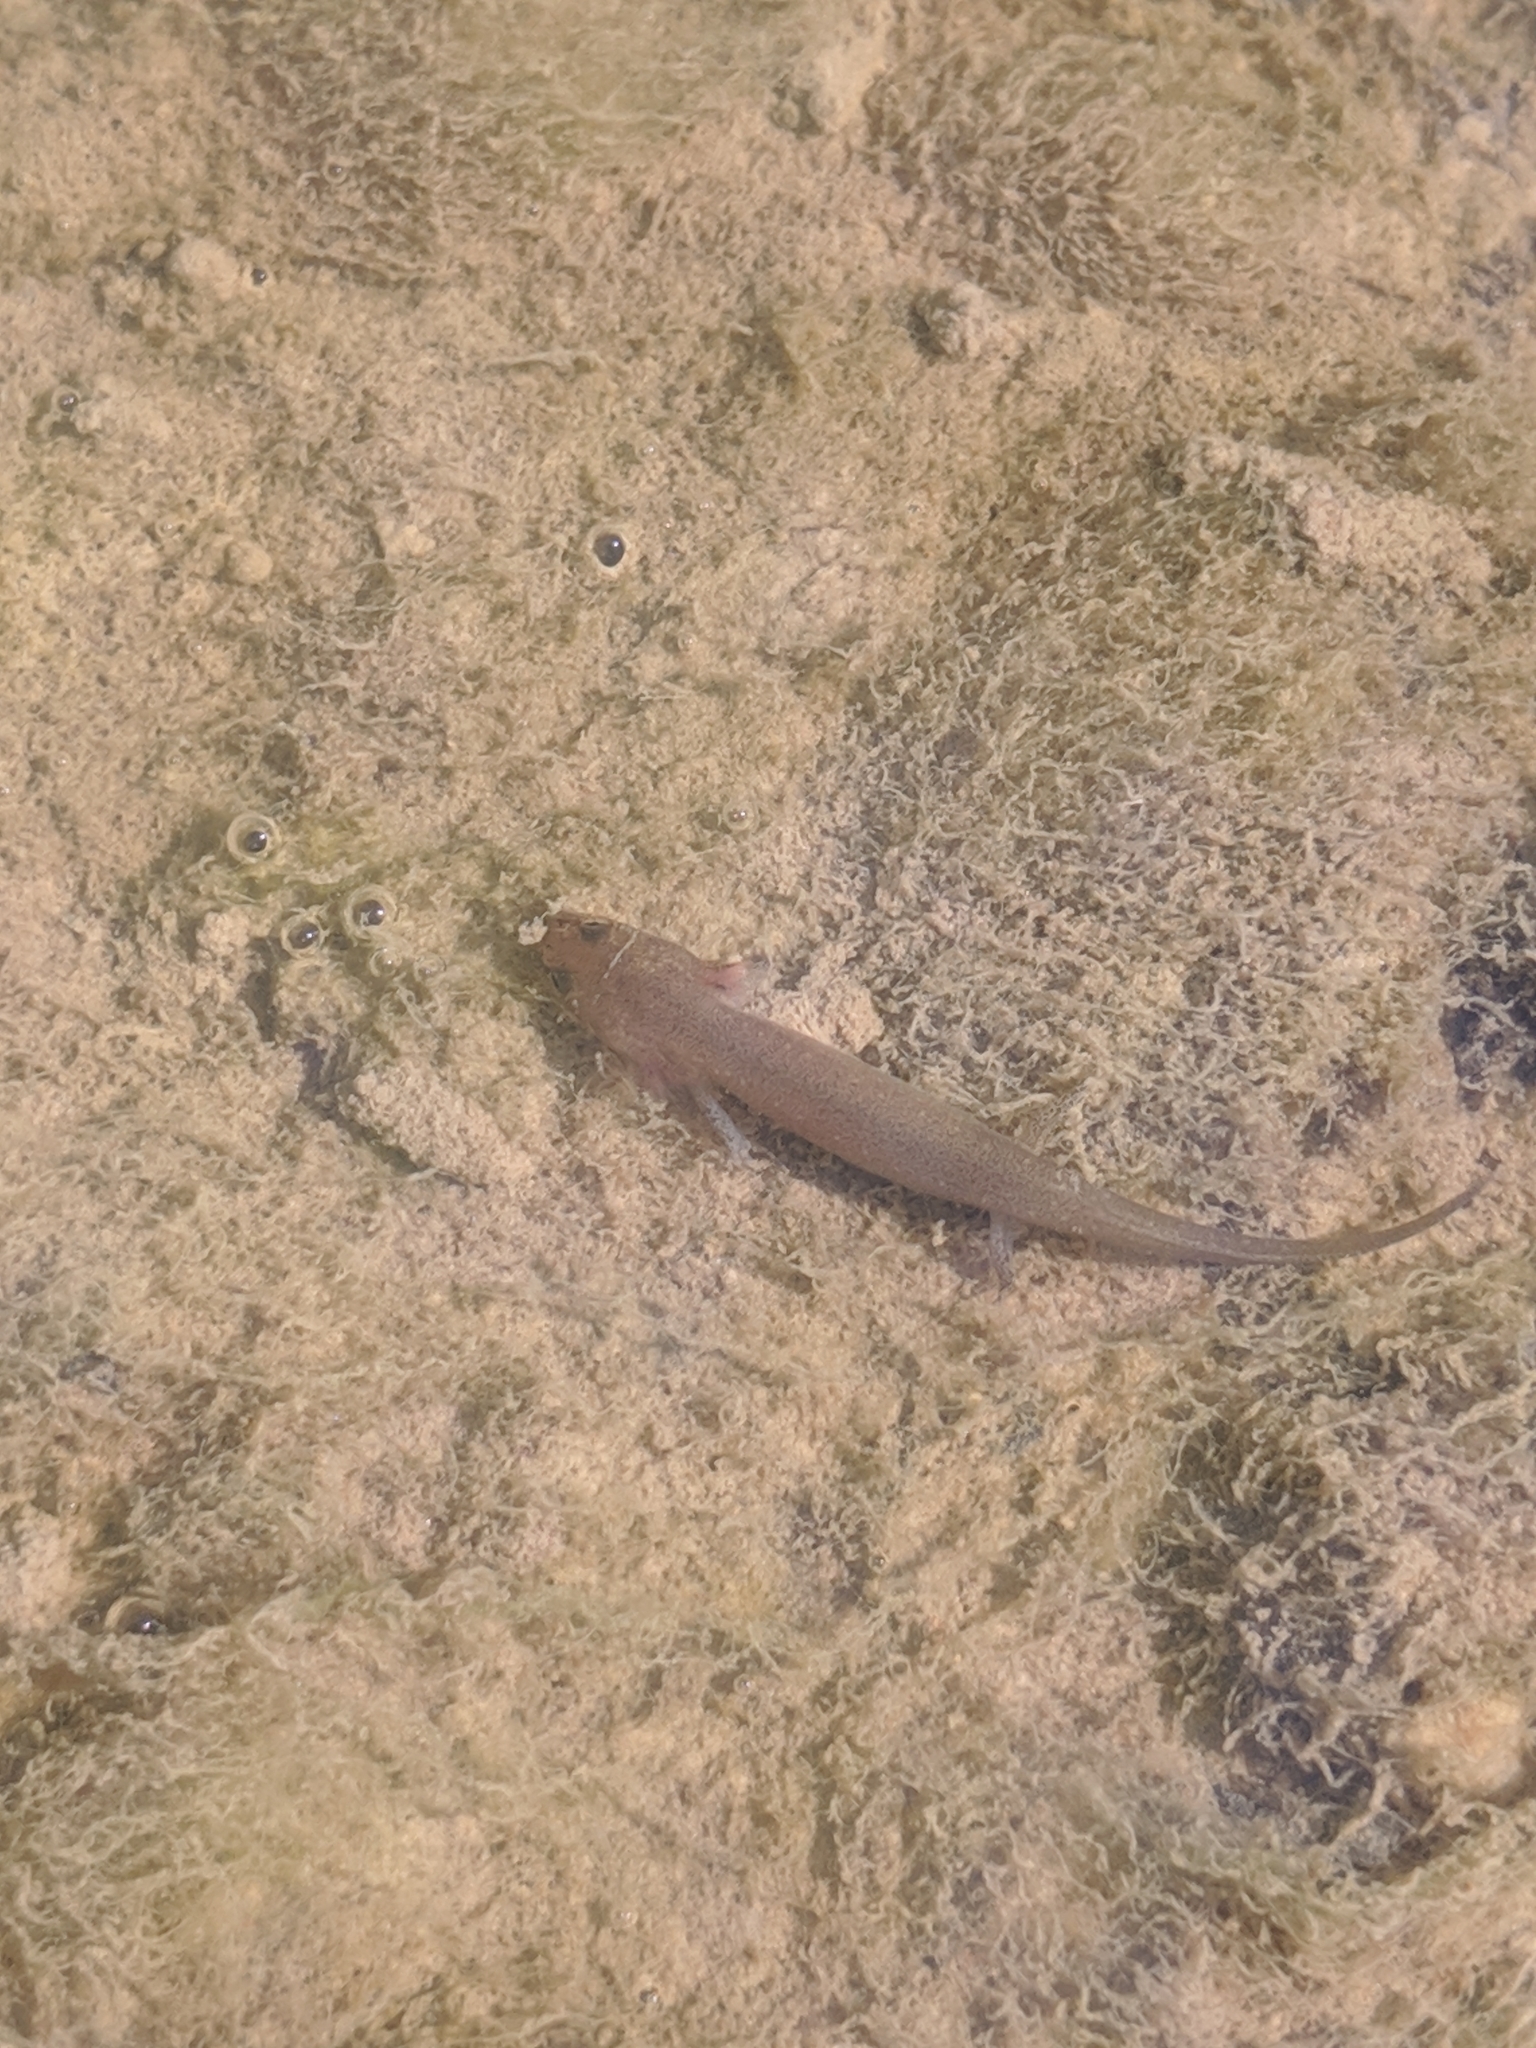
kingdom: Animalia
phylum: Chordata
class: Amphibia
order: Caudata
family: Plethodontidae
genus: Pseudotriton
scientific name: Pseudotriton ruber
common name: Red salamander
